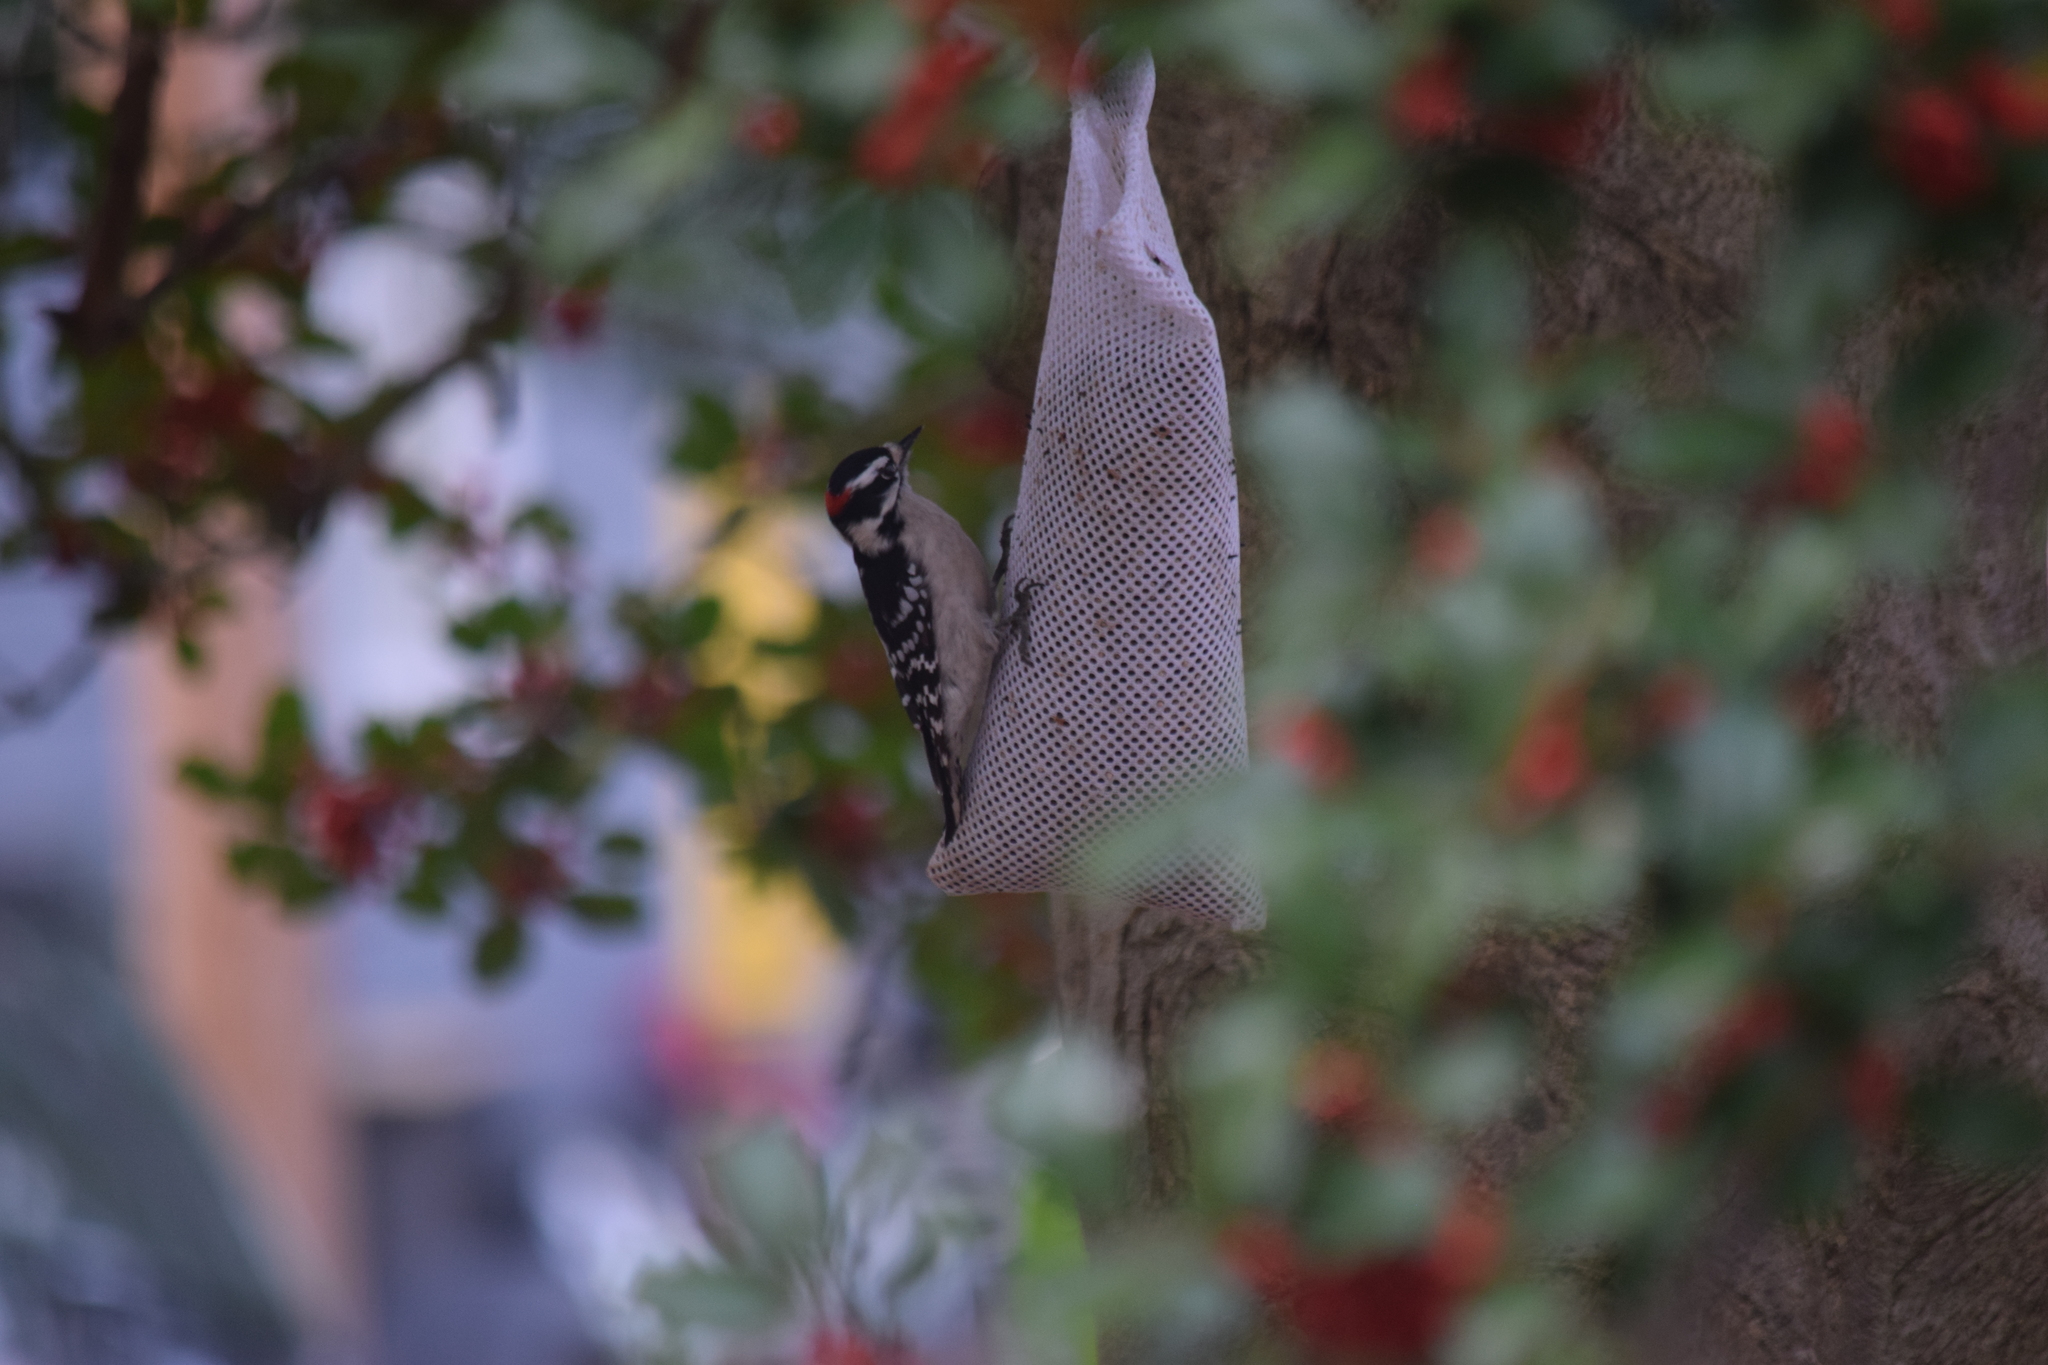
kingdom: Animalia
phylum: Chordata
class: Aves
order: Piciformes
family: Picidae
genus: Dryobates
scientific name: Dryobates pubescens
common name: Downy woodpecker
